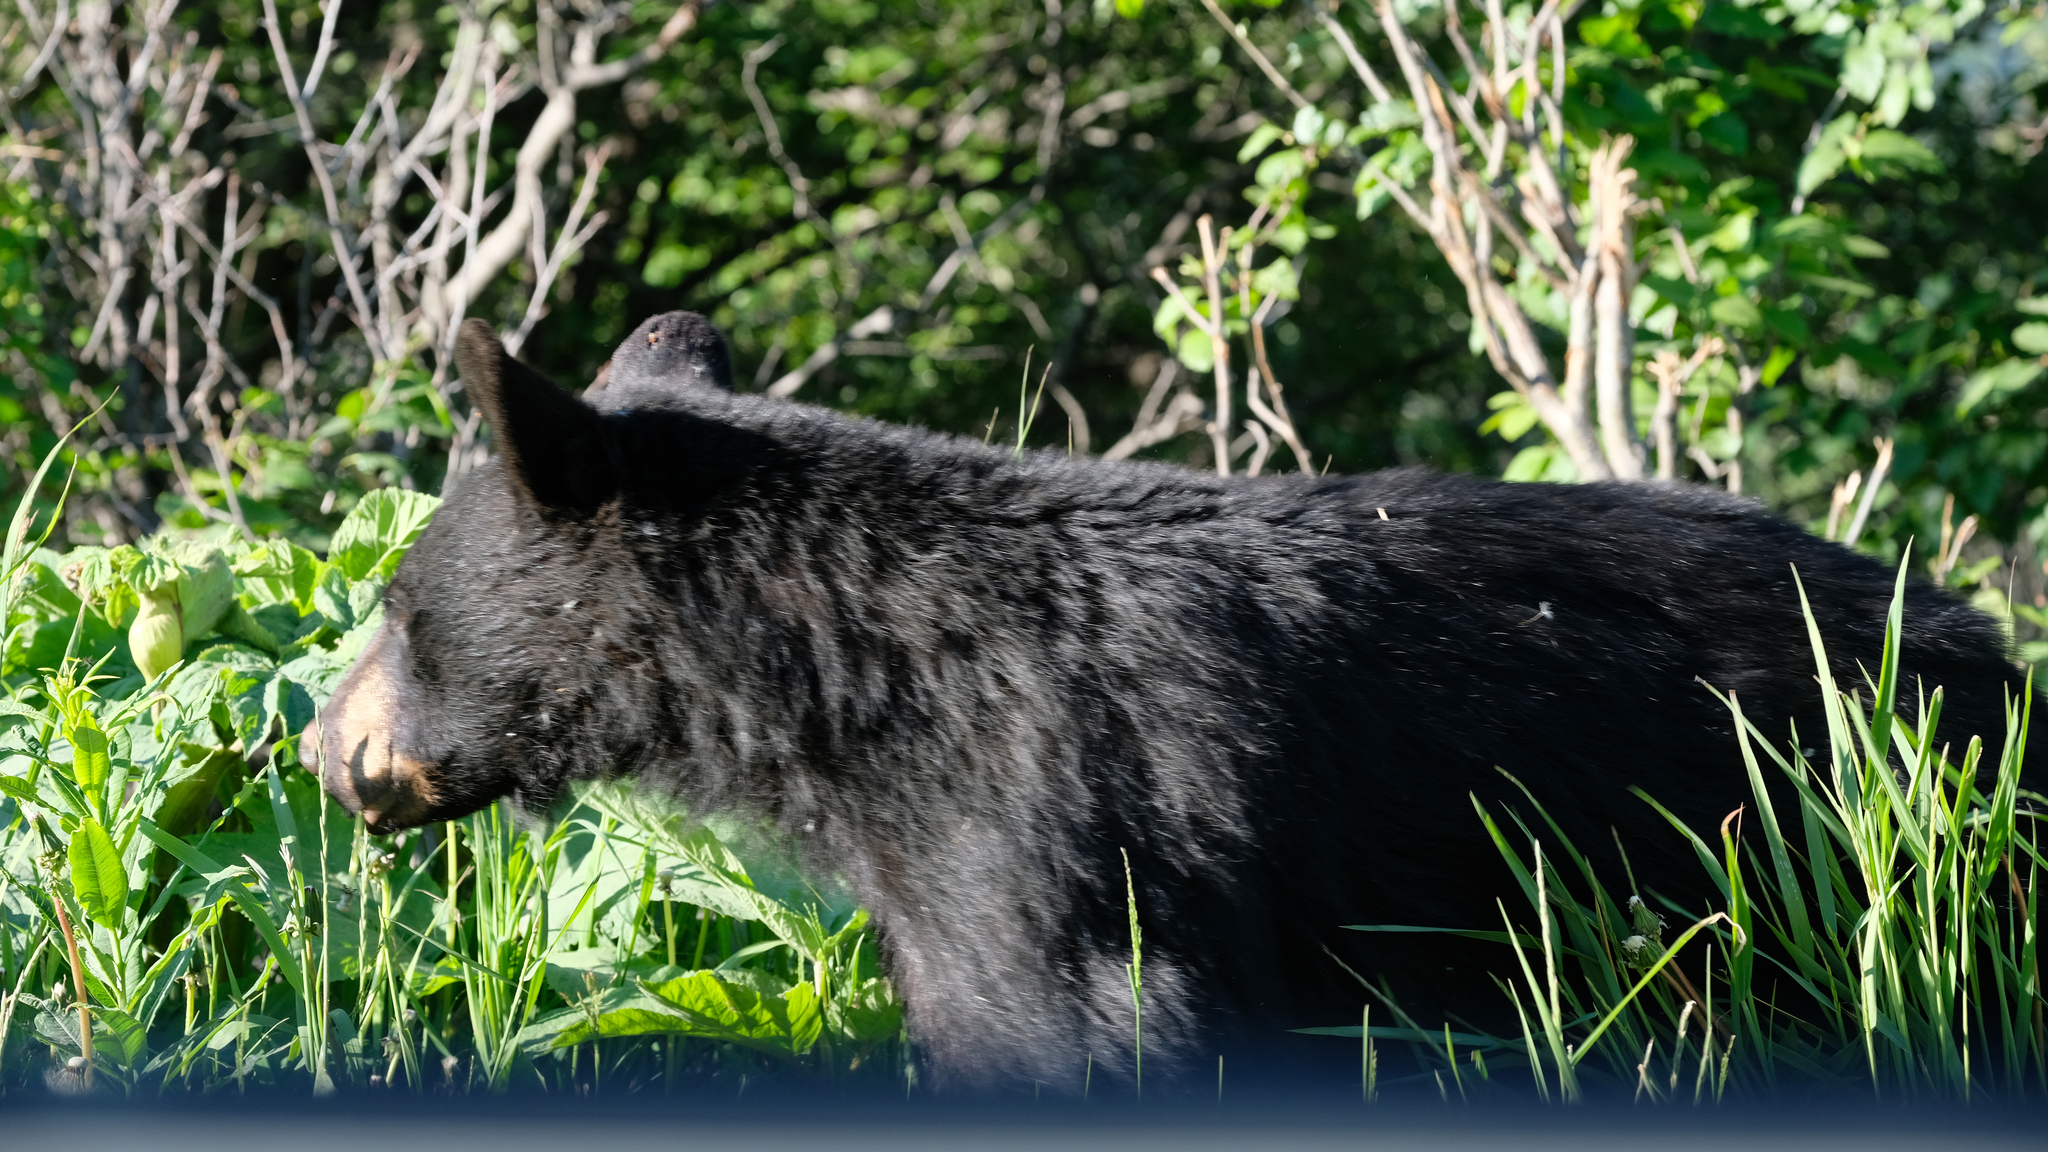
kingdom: Animalia
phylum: Chordata
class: Mammalia
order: Carnivora
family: Ursidae
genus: Ursus
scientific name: Ursus americanus
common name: American black bear
